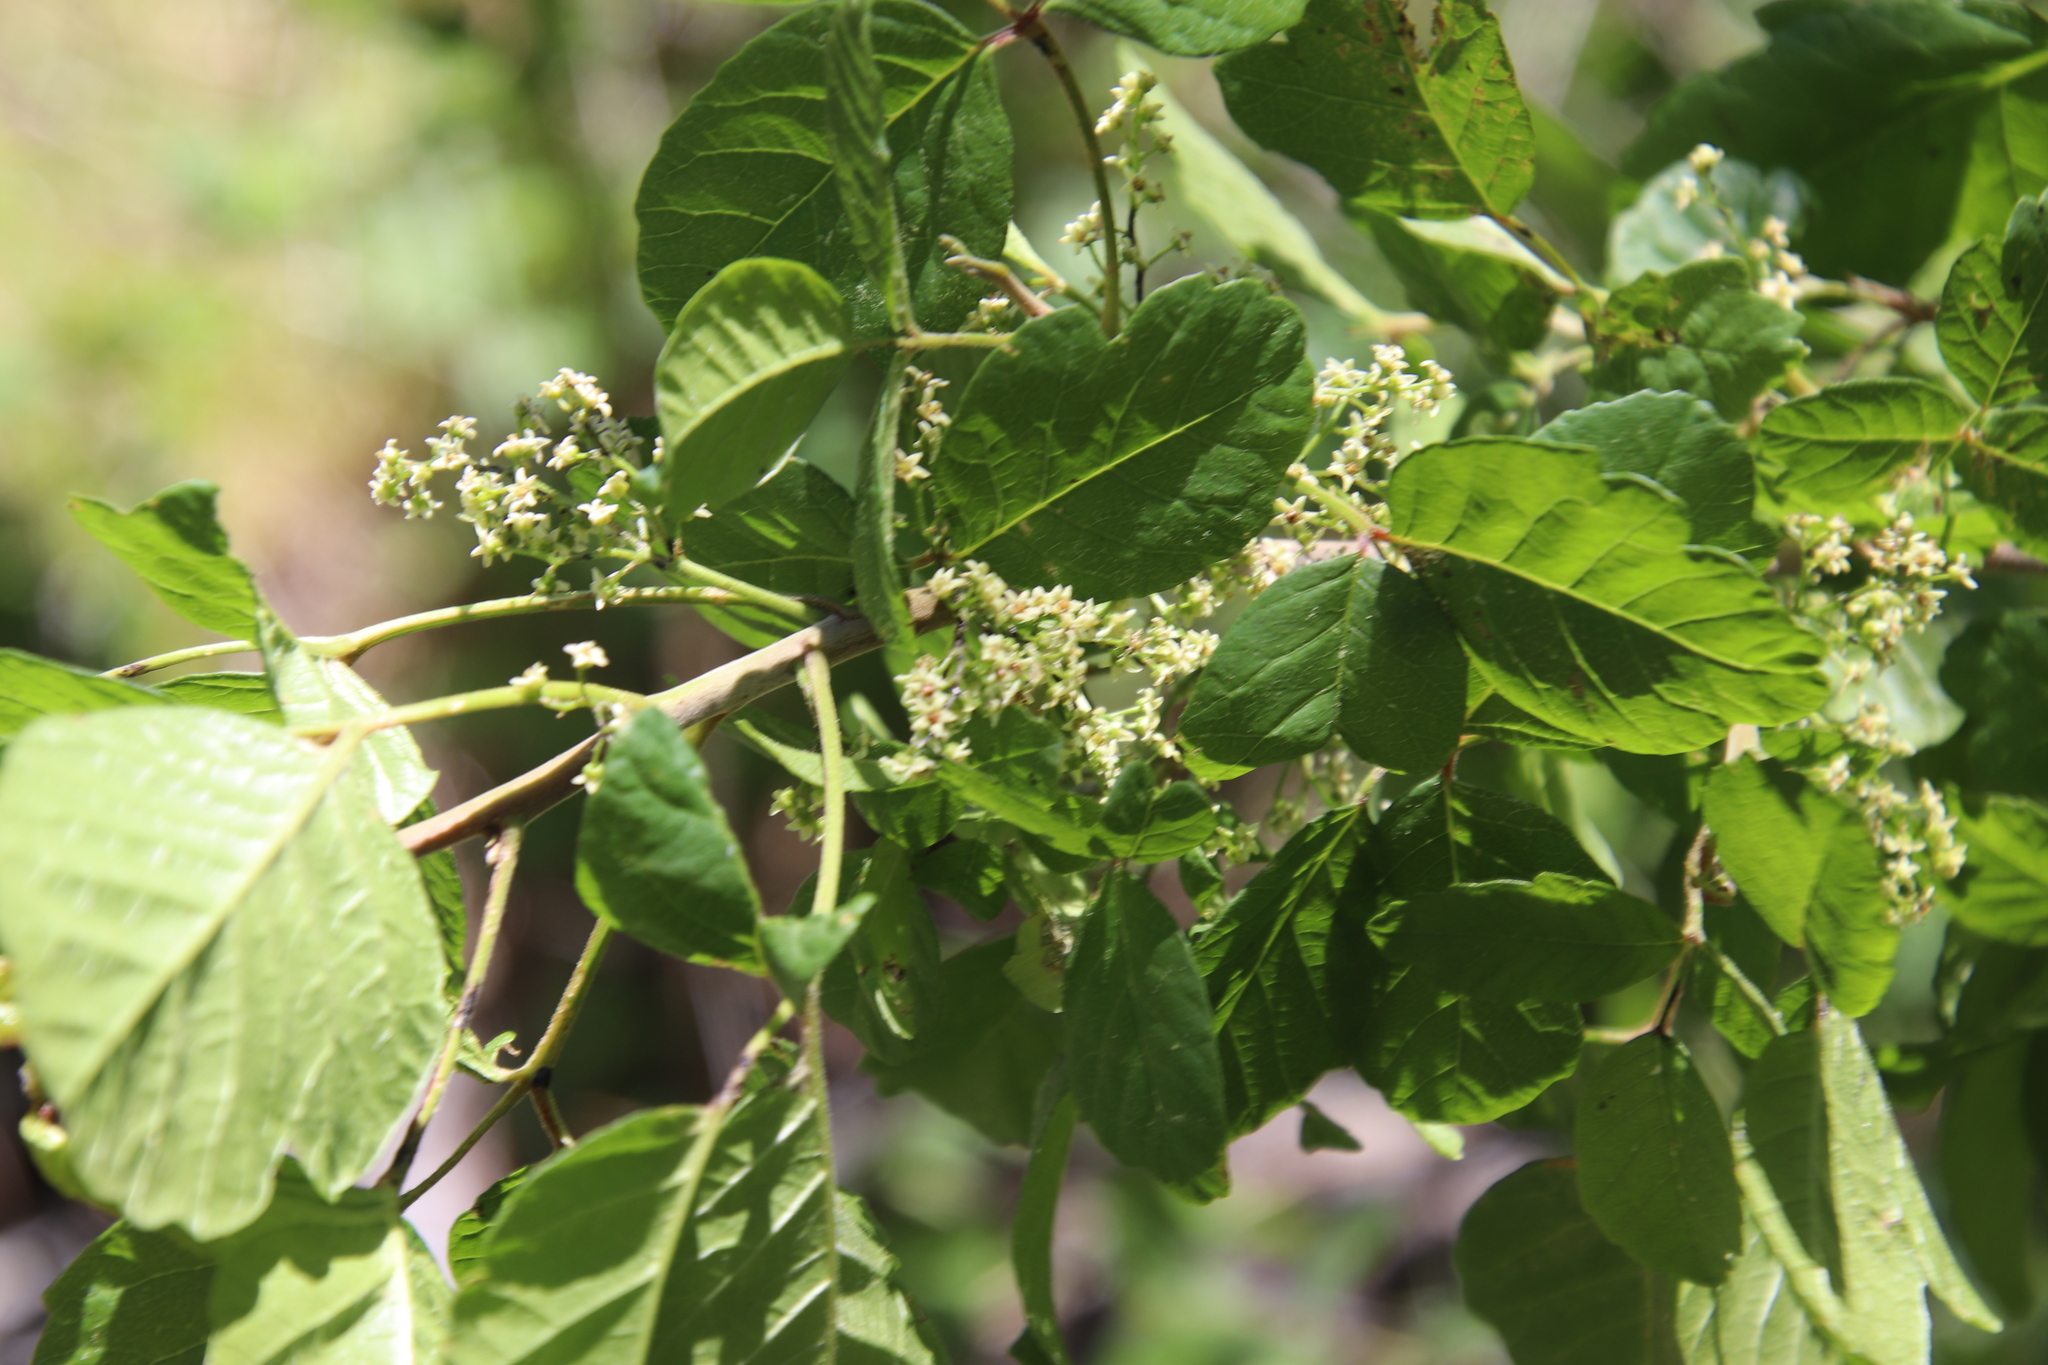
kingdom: Plantae
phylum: Tracheophyta
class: Magnoliopsida
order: Sapindales
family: Anacardiaceae
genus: Toxicodendron
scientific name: Toxicodendron diversilobum
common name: Pacific poison-oak
